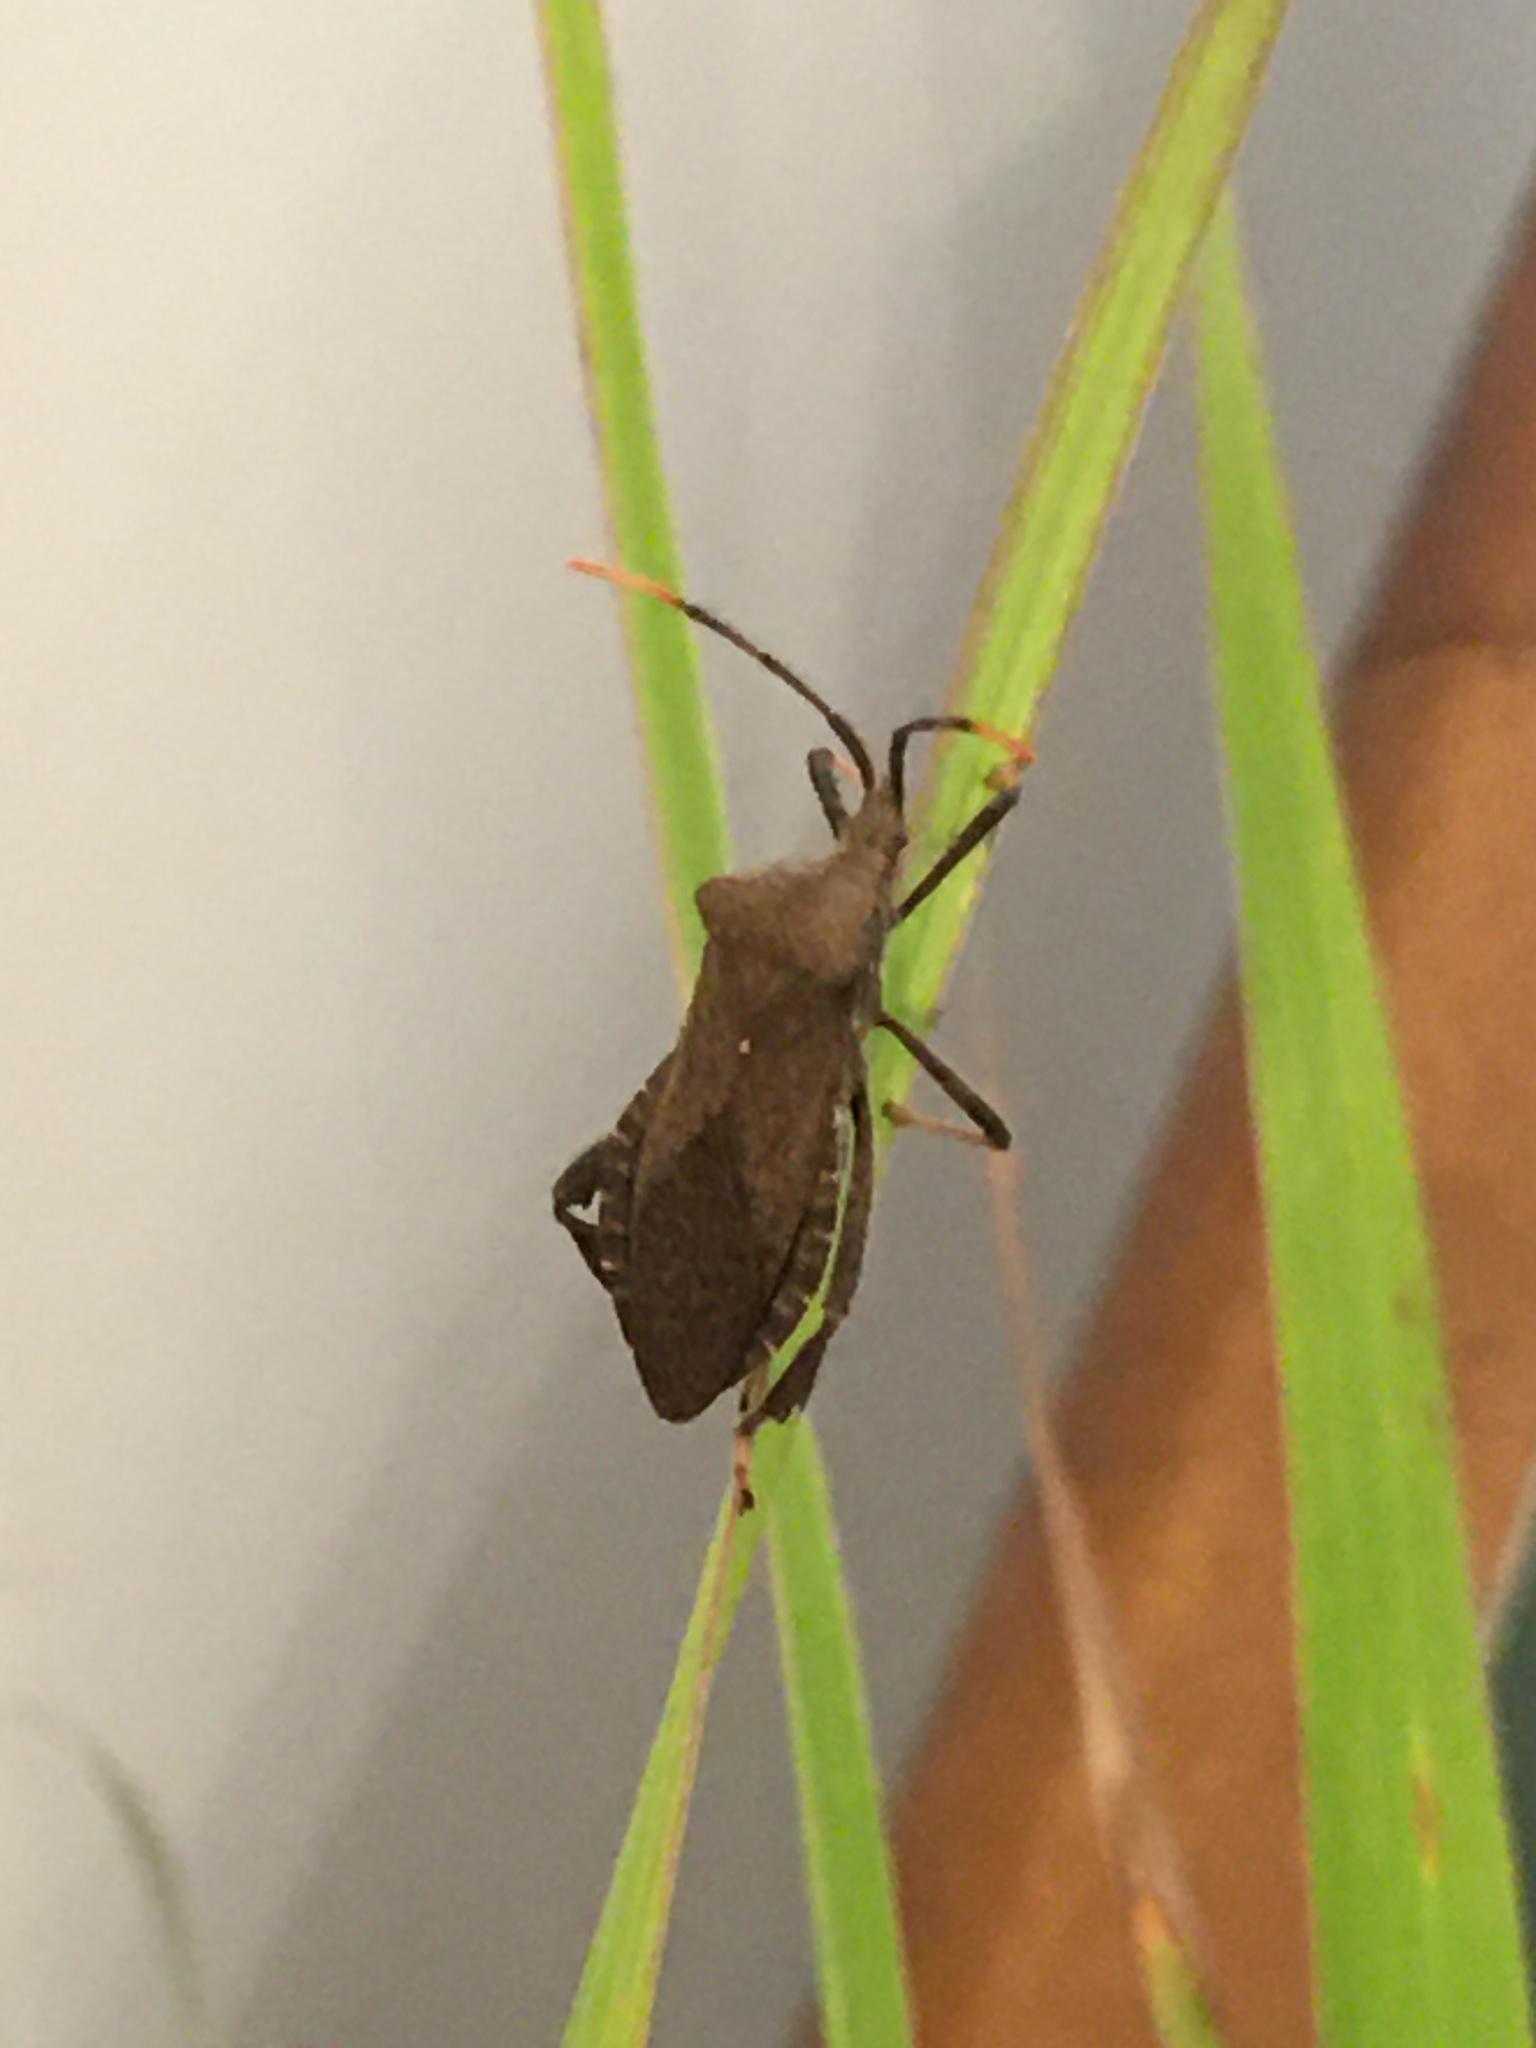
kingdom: Animalia
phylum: Arthropoda
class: Insecta
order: Hemiptera
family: Coreidae
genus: Acanthocephala
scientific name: Acanthocephala terminalis
